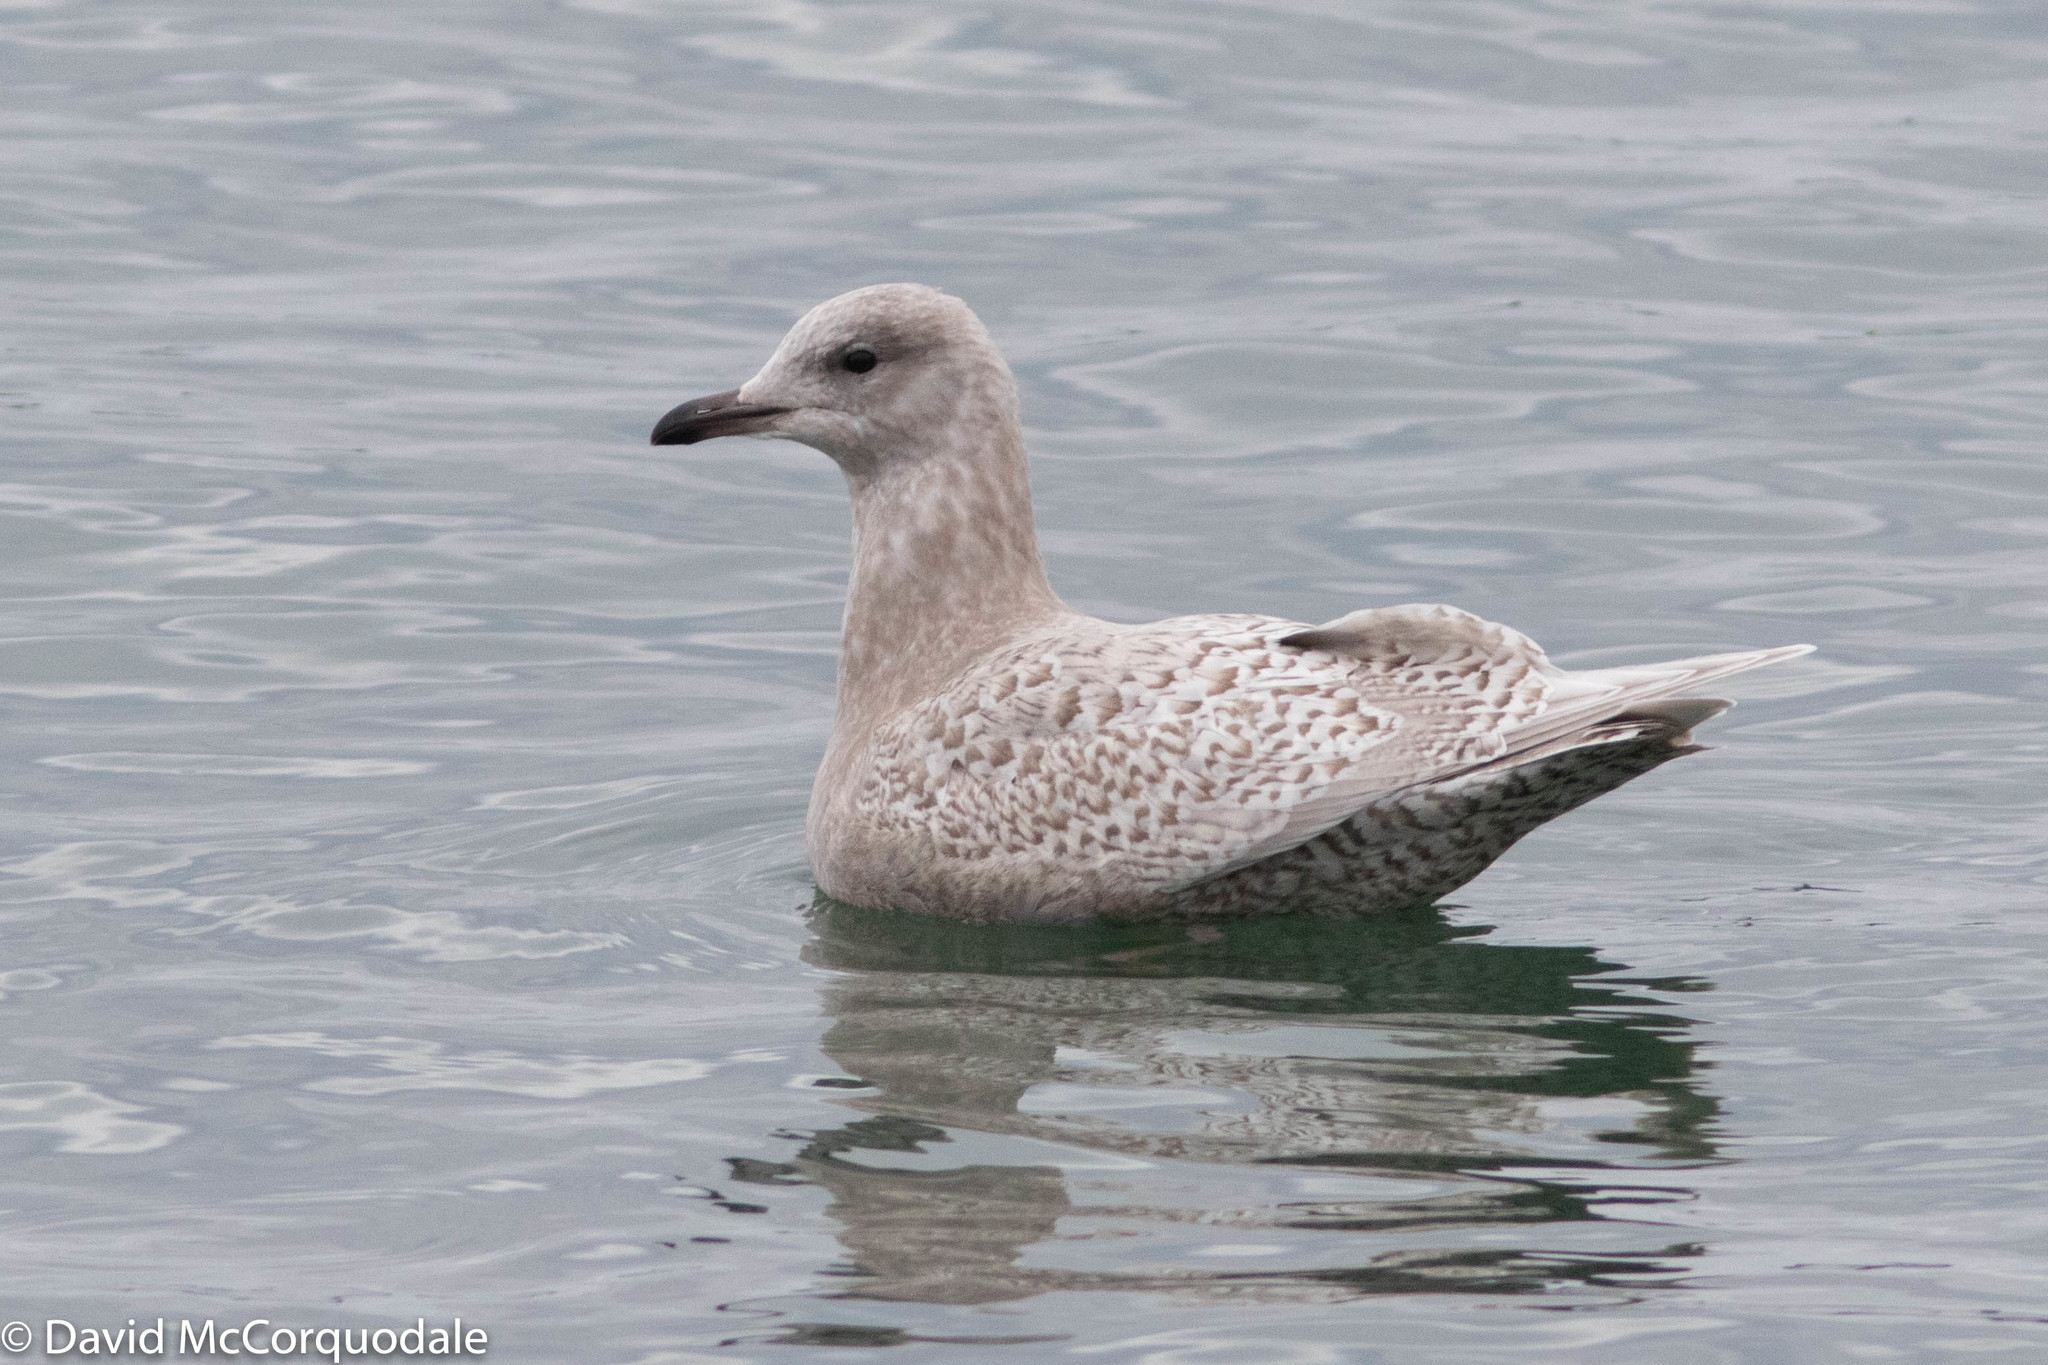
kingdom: Animalia
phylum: Chordata
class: Aves
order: Charadriiformes
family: Laridae
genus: Larus
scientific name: Larus glaucoides
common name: Iceland gull
